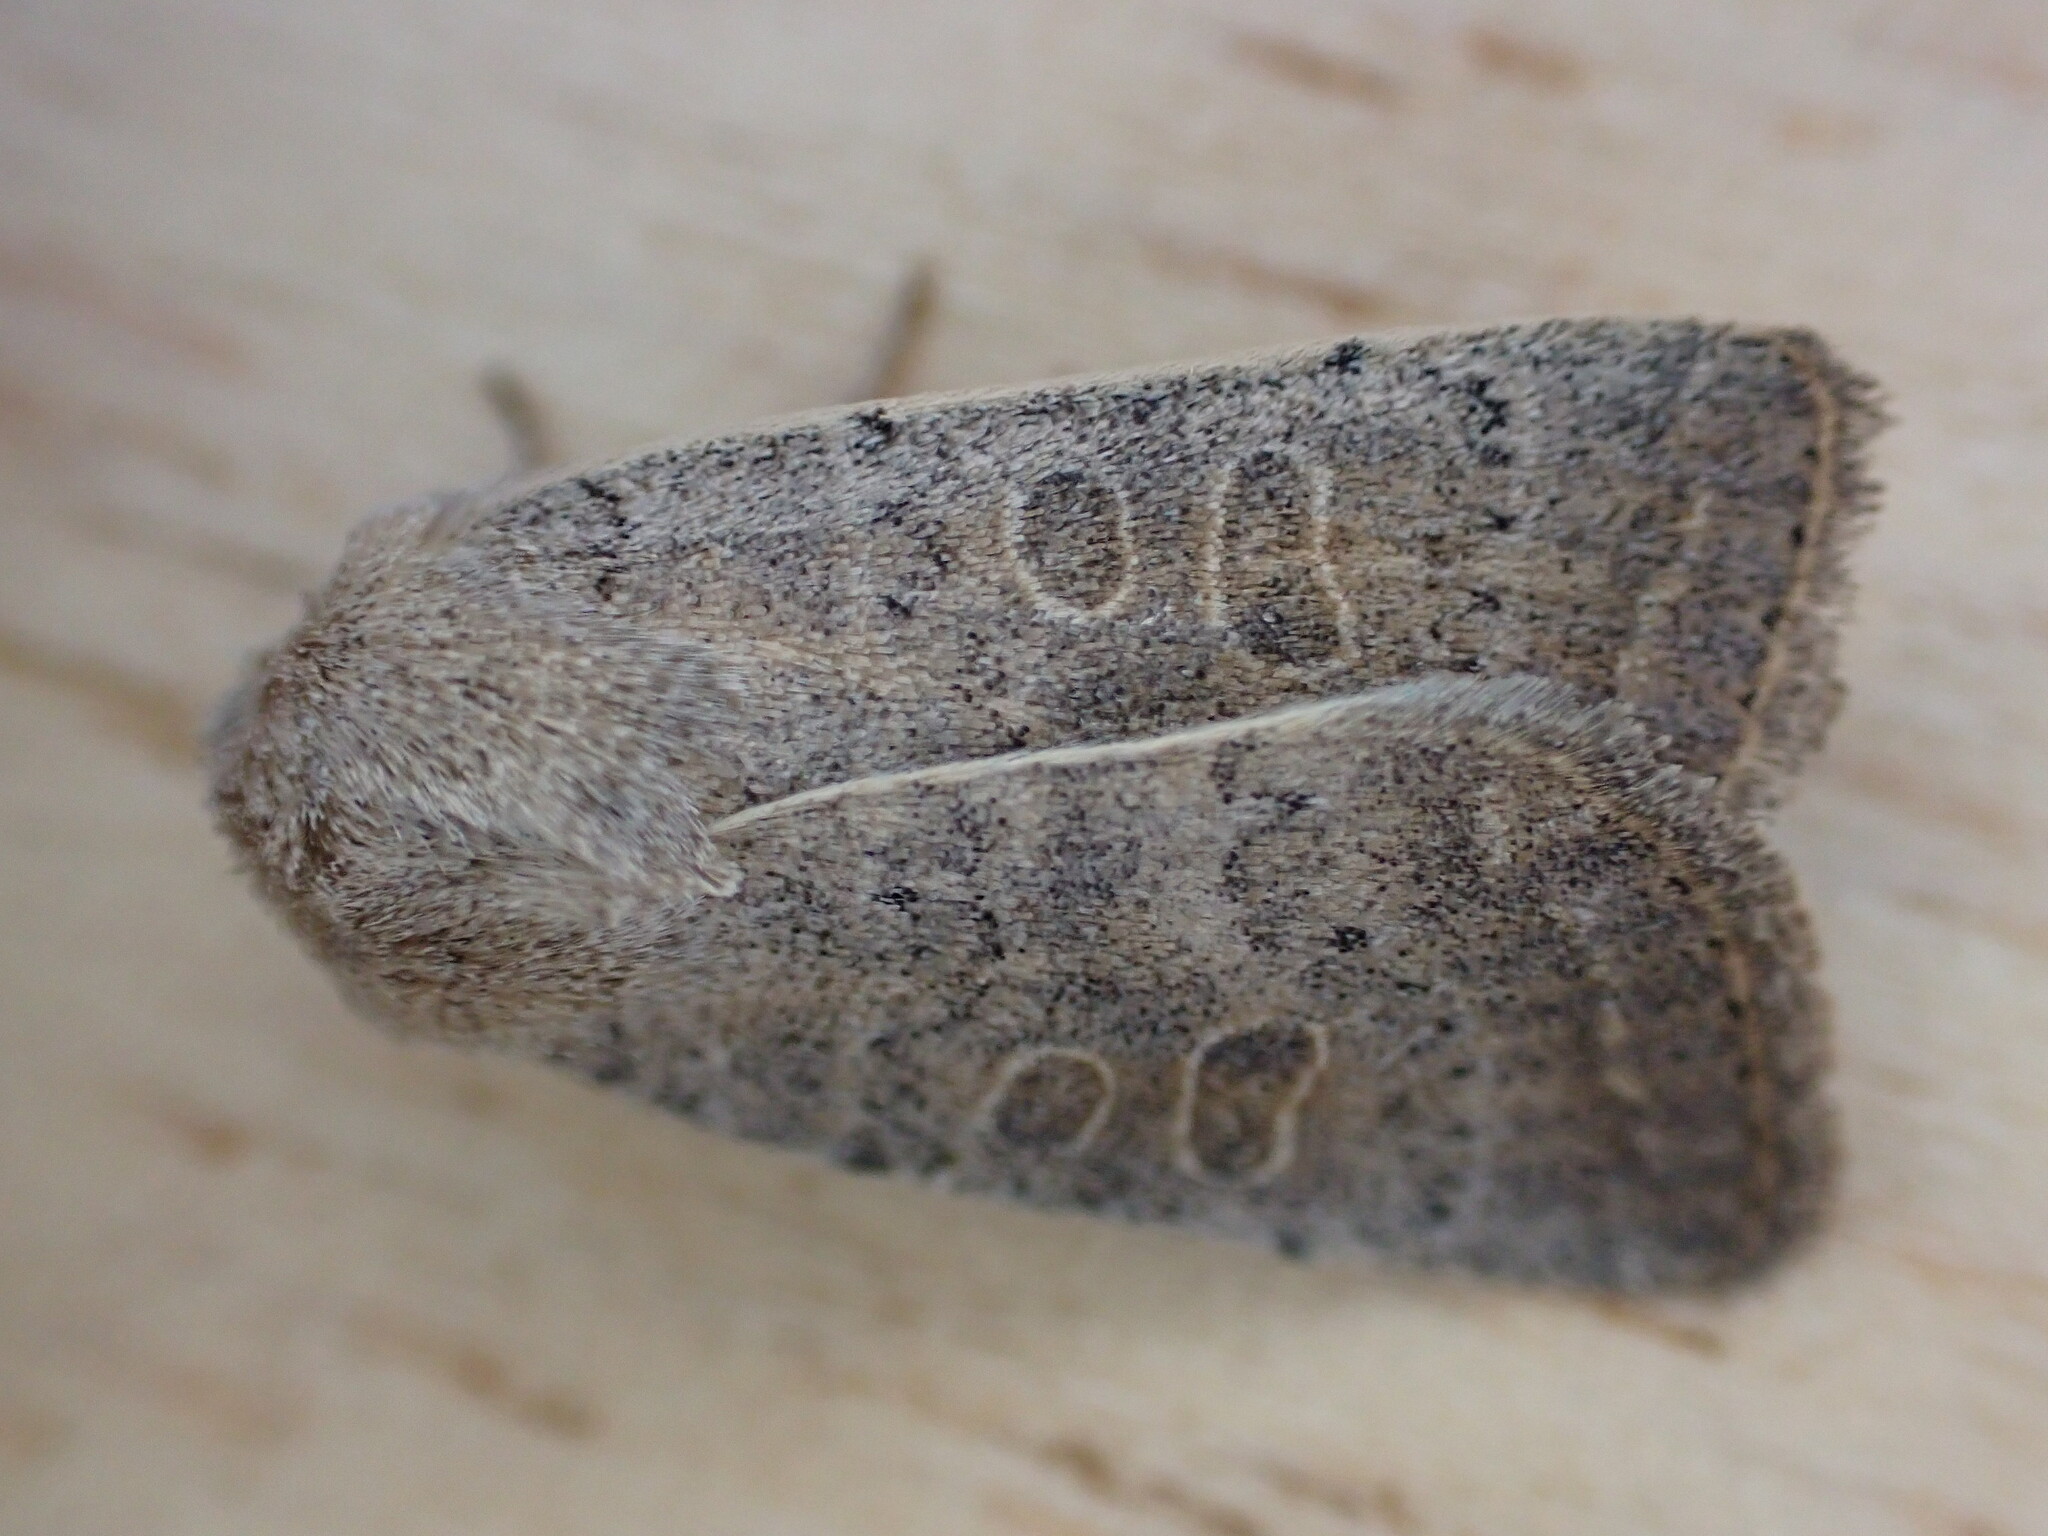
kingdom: Animalia
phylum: Arthropoda
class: Insecta
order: Lepidoptera
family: Noctuidae
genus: Hoplodrina
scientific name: Hoplodrina ambigua
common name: Vine's rustic
